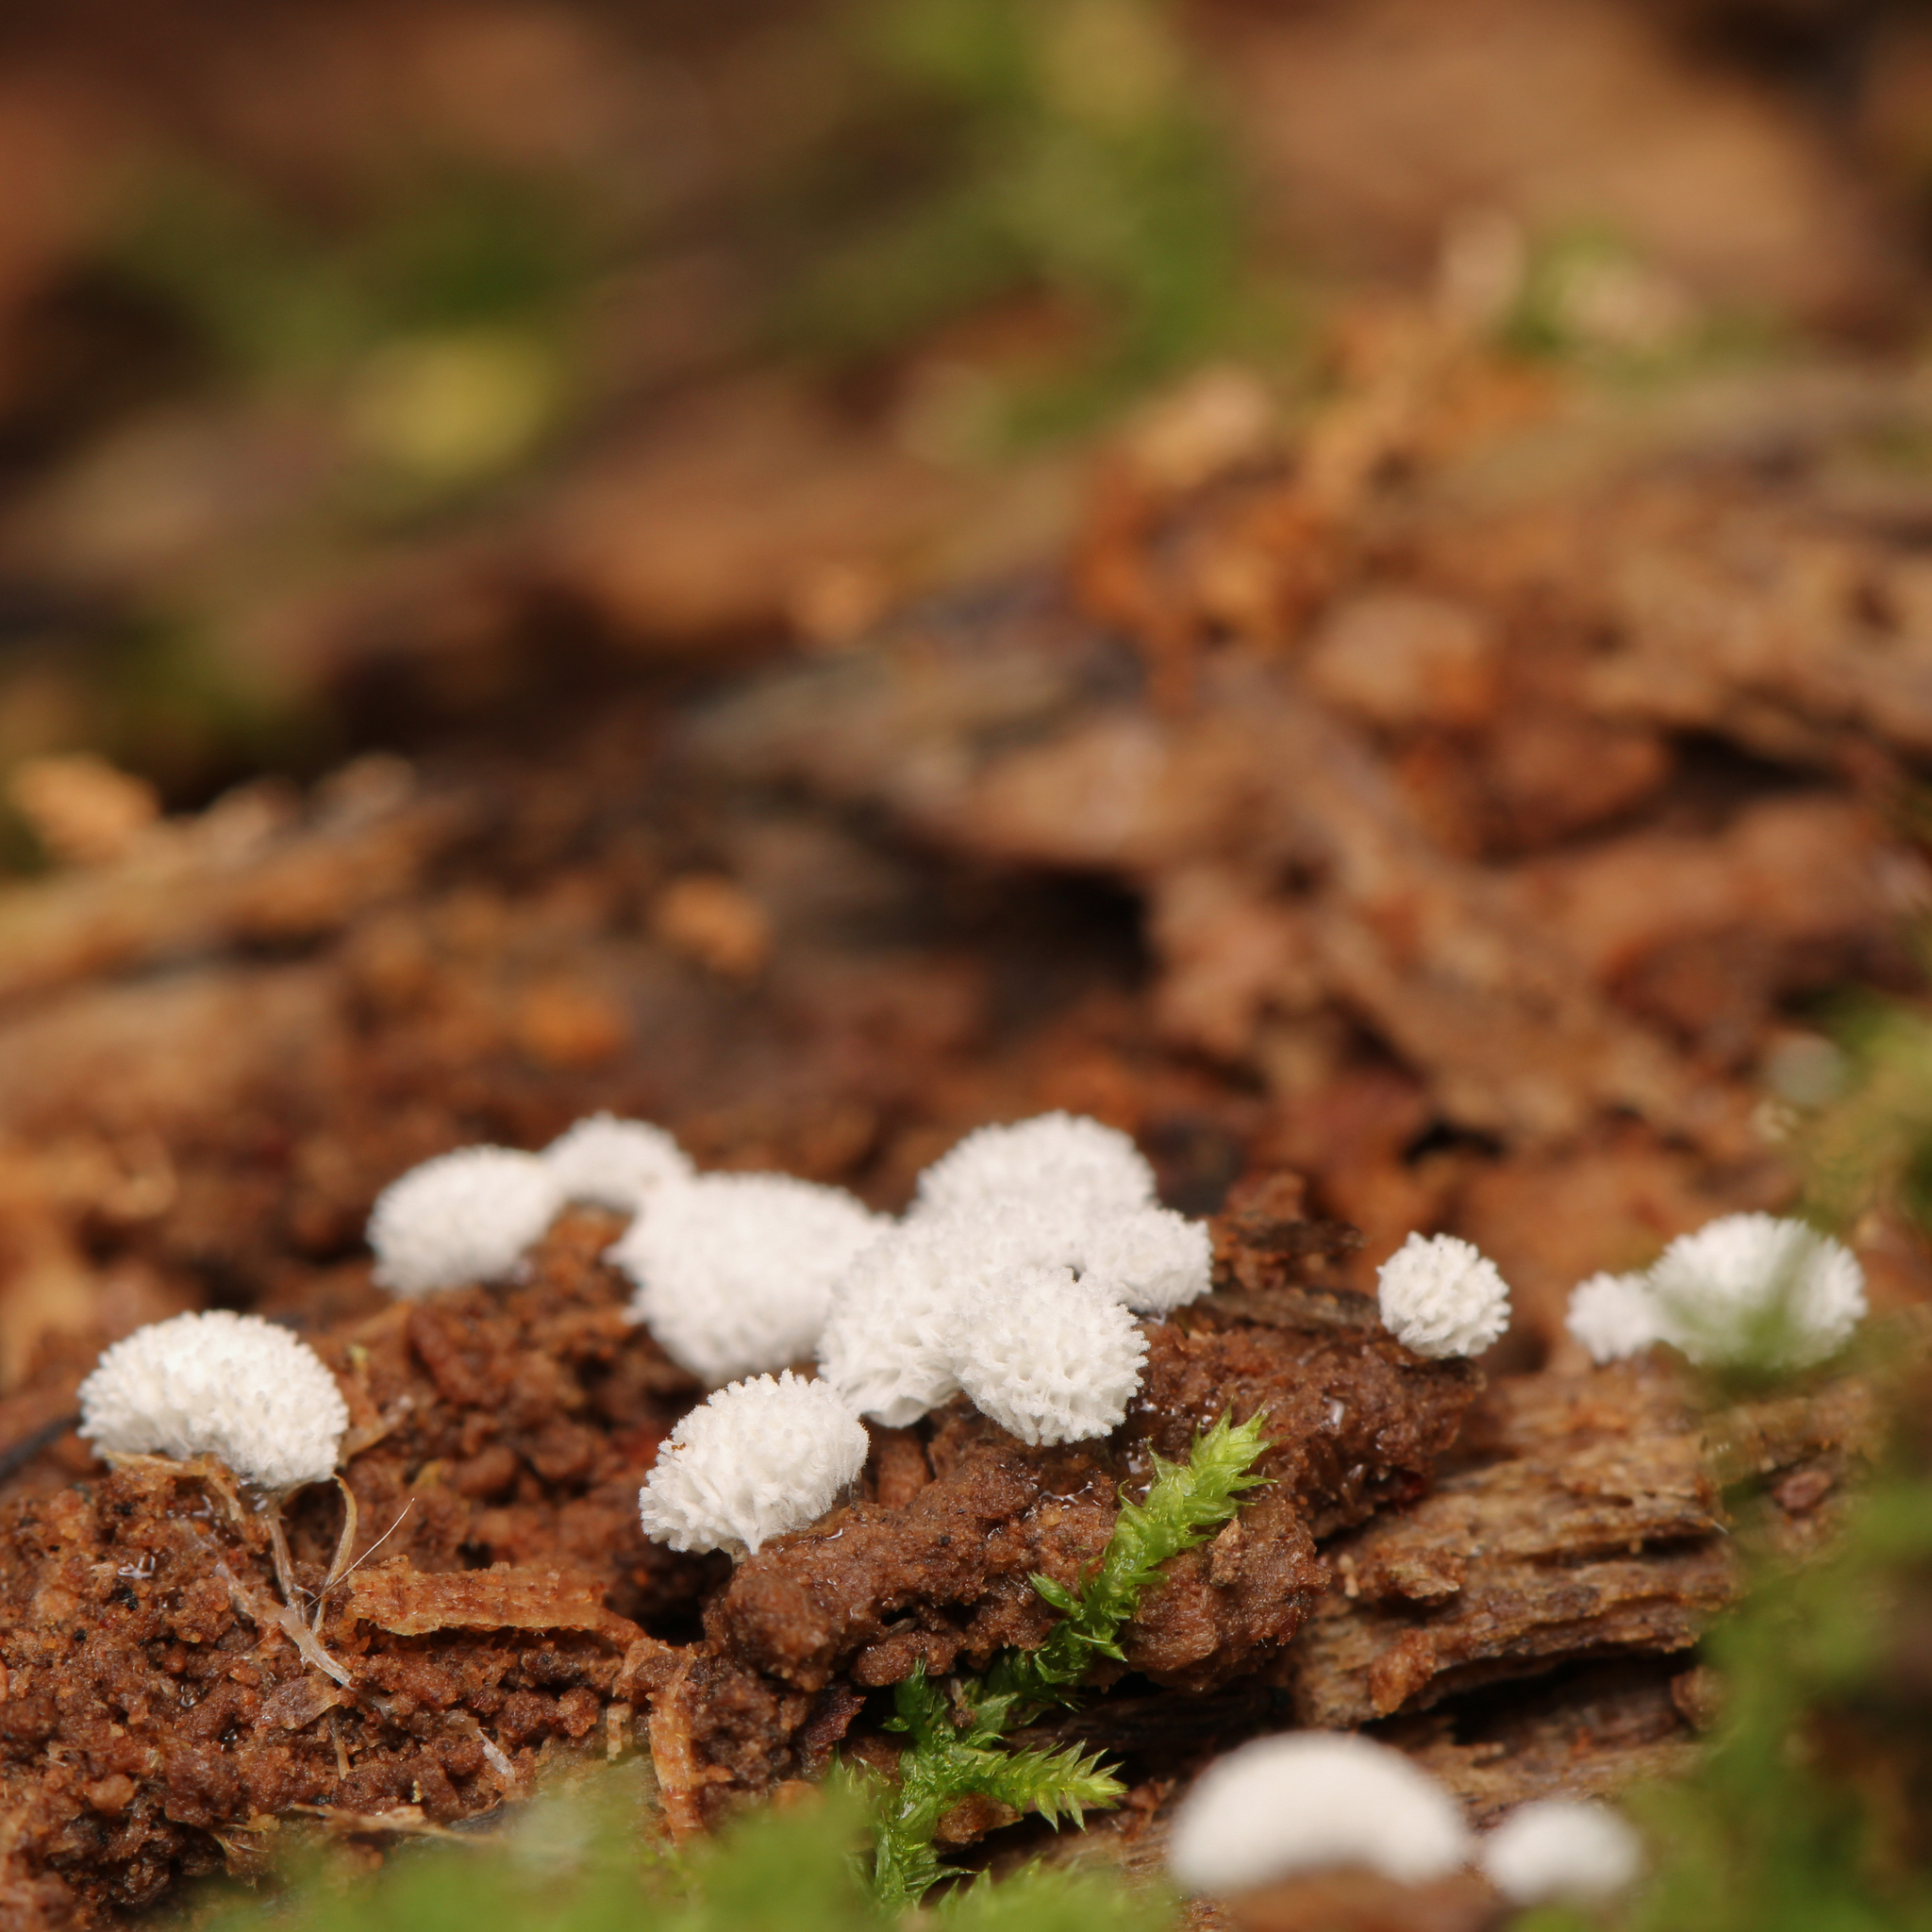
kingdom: Protozoa
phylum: Mycetozoa
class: Protosteliomycetes
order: Ceratiomyxales
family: Ceratiomyxaceae
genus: Ceratiomyxa
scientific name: Ceratiomyxa fruticulosa
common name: Honeycomb coral slime mold
